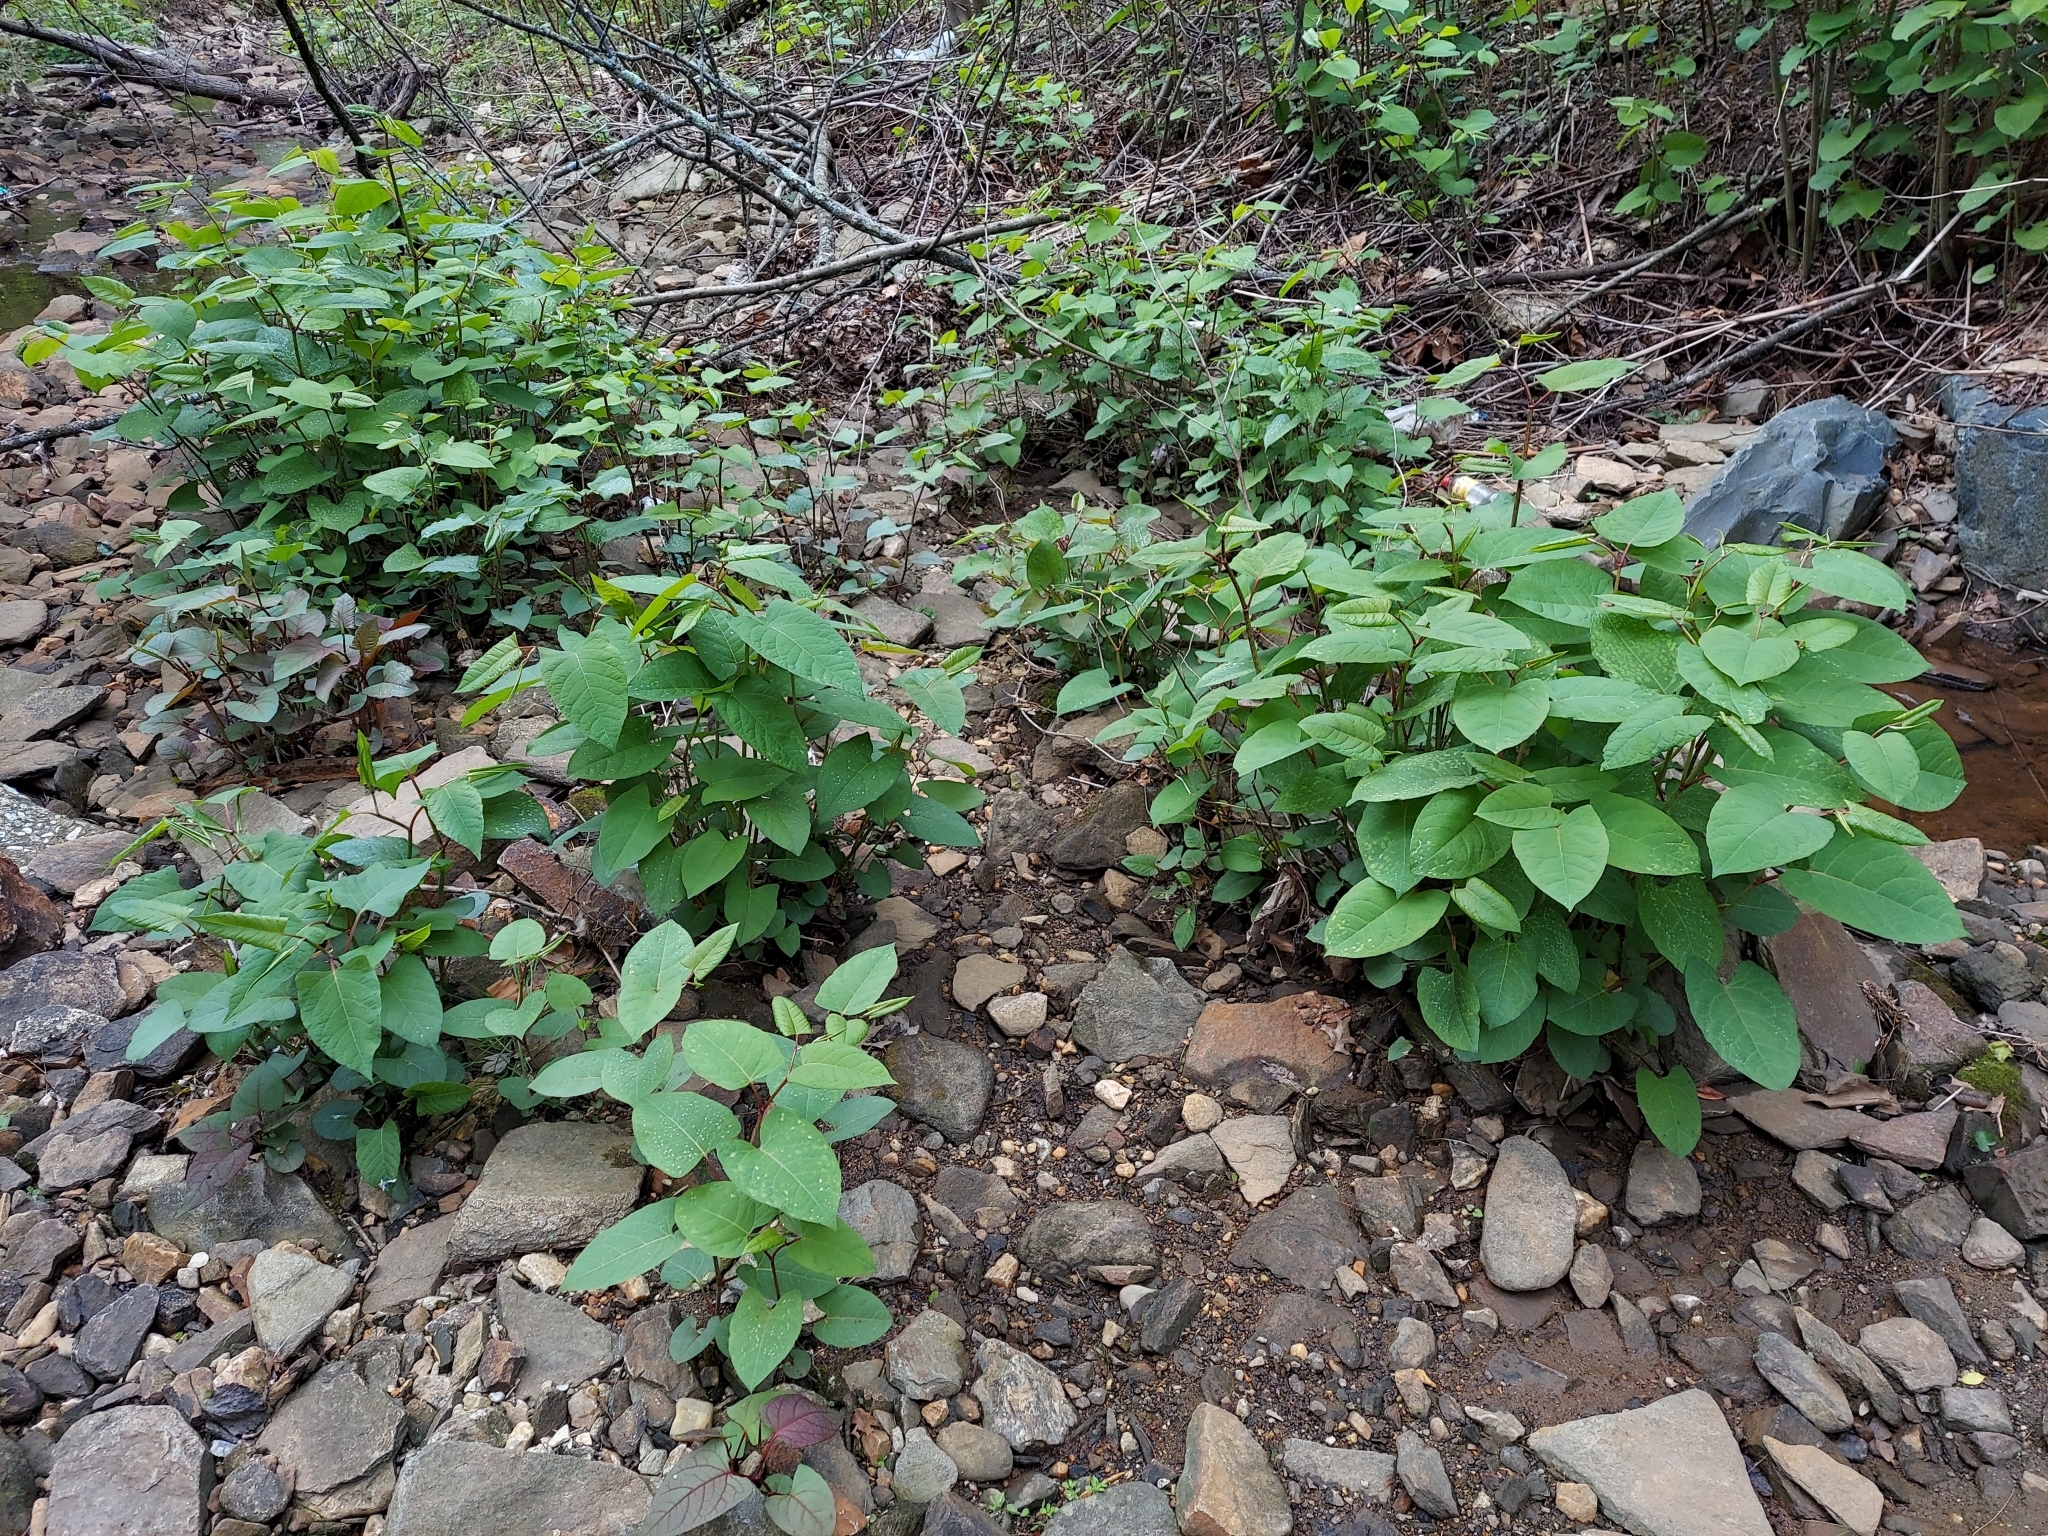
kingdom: Plantae
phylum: Tracheophyta
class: Magnoliopsida
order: Caryophyllales
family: Polygonaceae
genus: Reynoutria
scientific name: Reynoutria japonica
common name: Japanese knotweed
